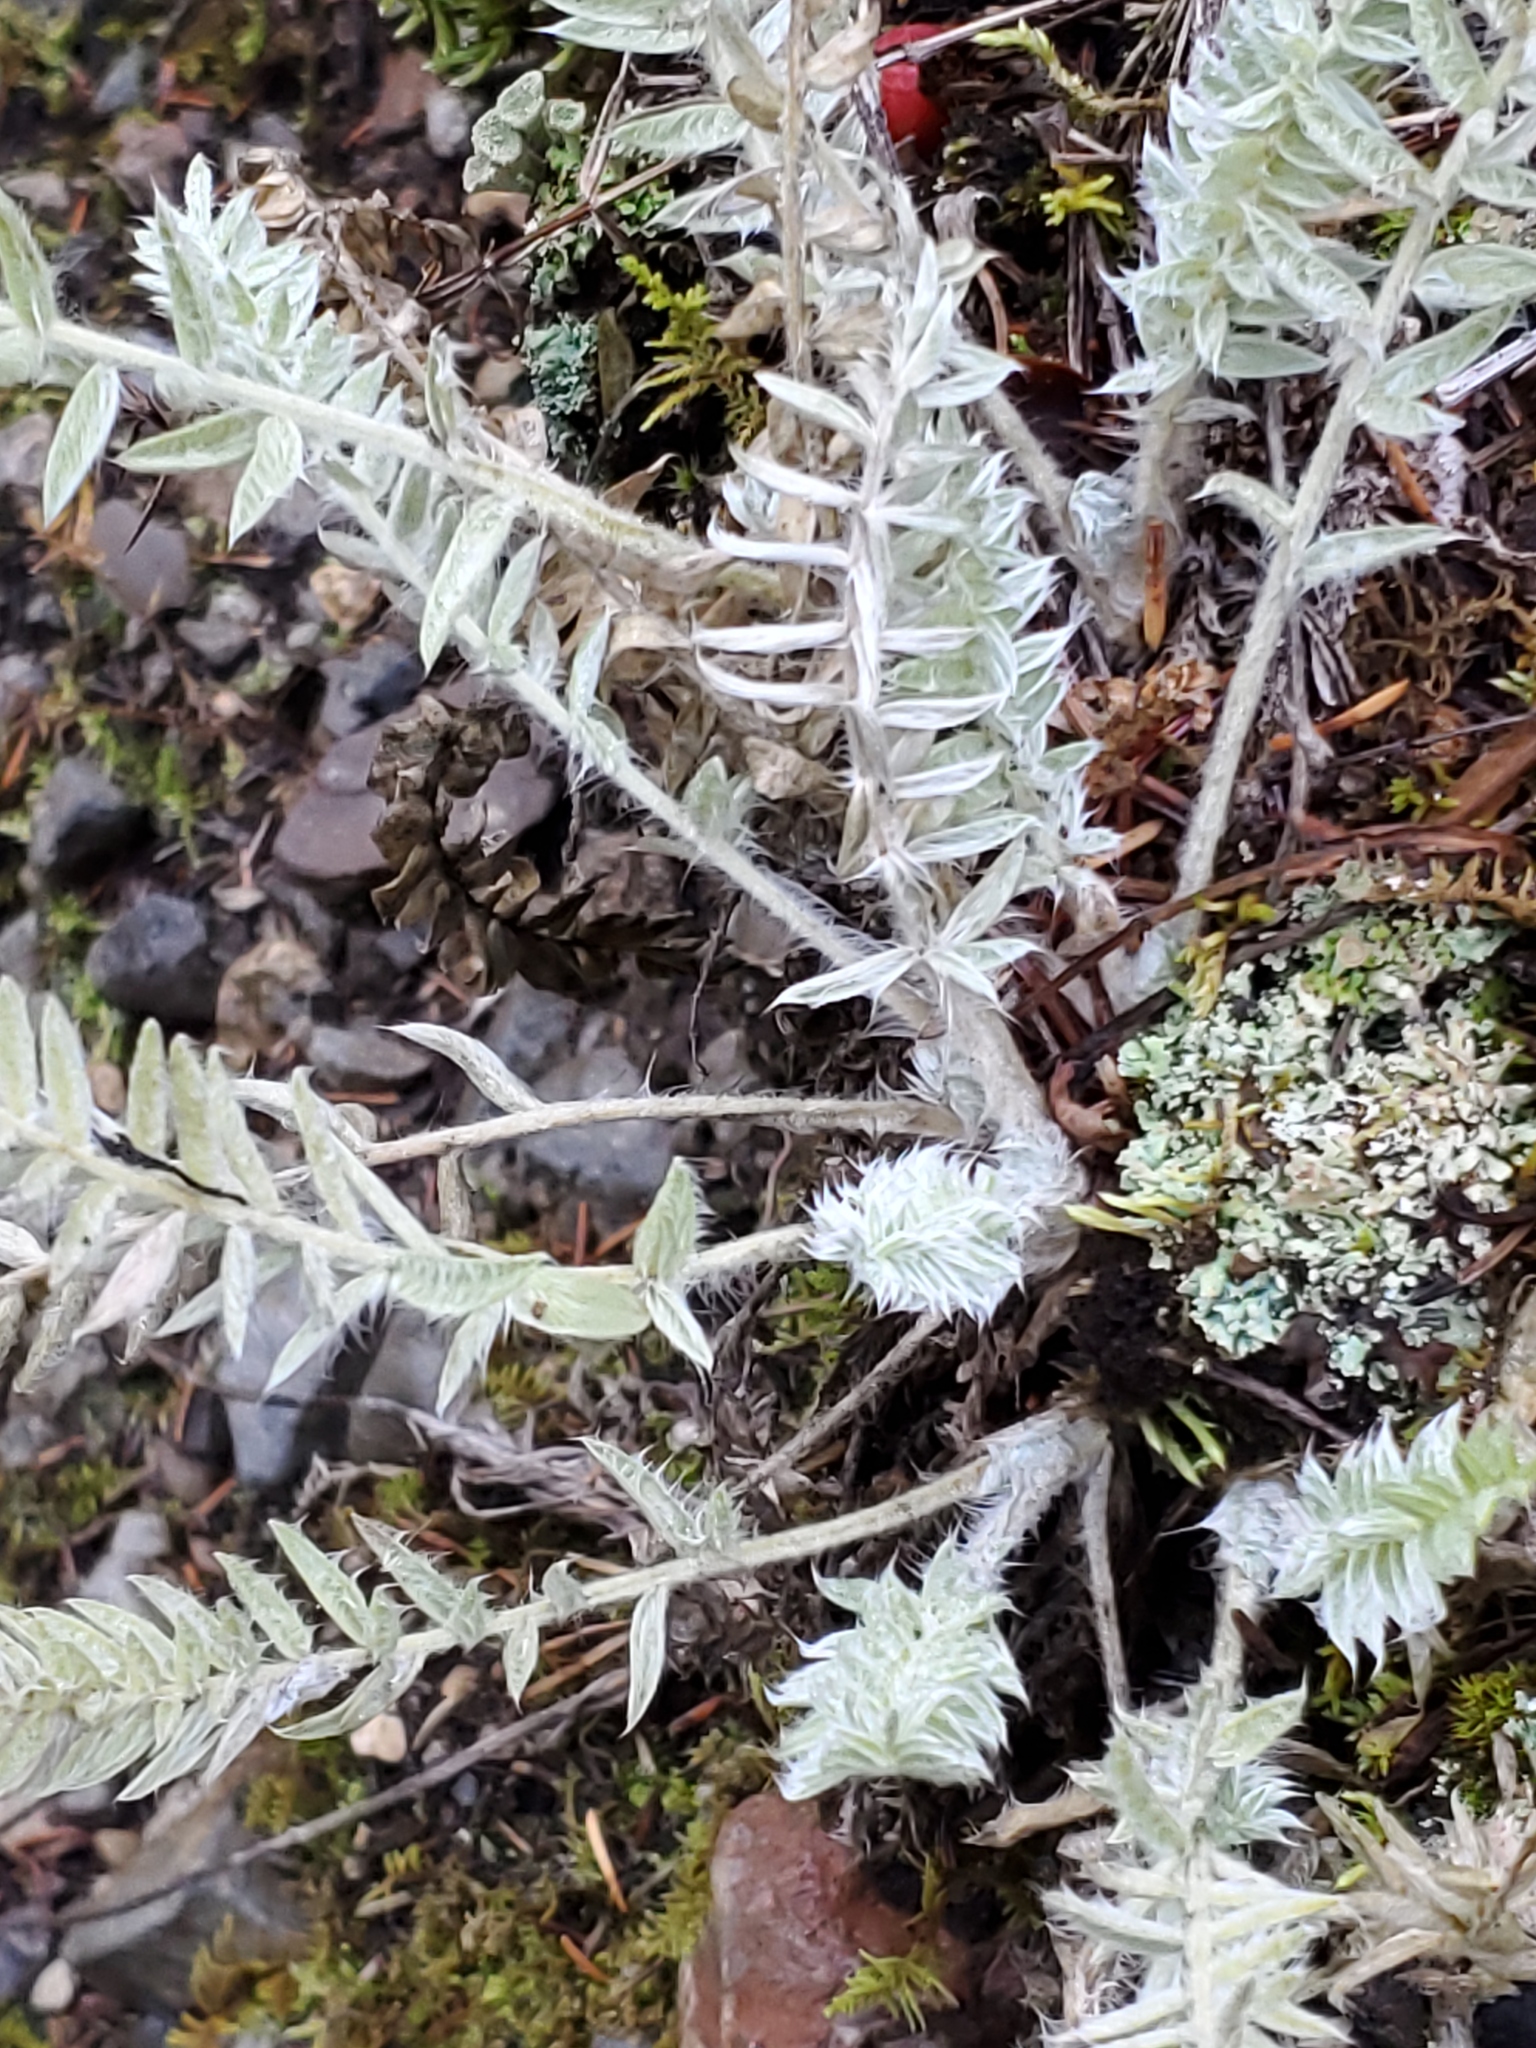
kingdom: Plantae
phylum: Tracheophyta
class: Magnoliopsida
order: Fabales
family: Fabaceae
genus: Oxytropis
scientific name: Oxytropis splendens
